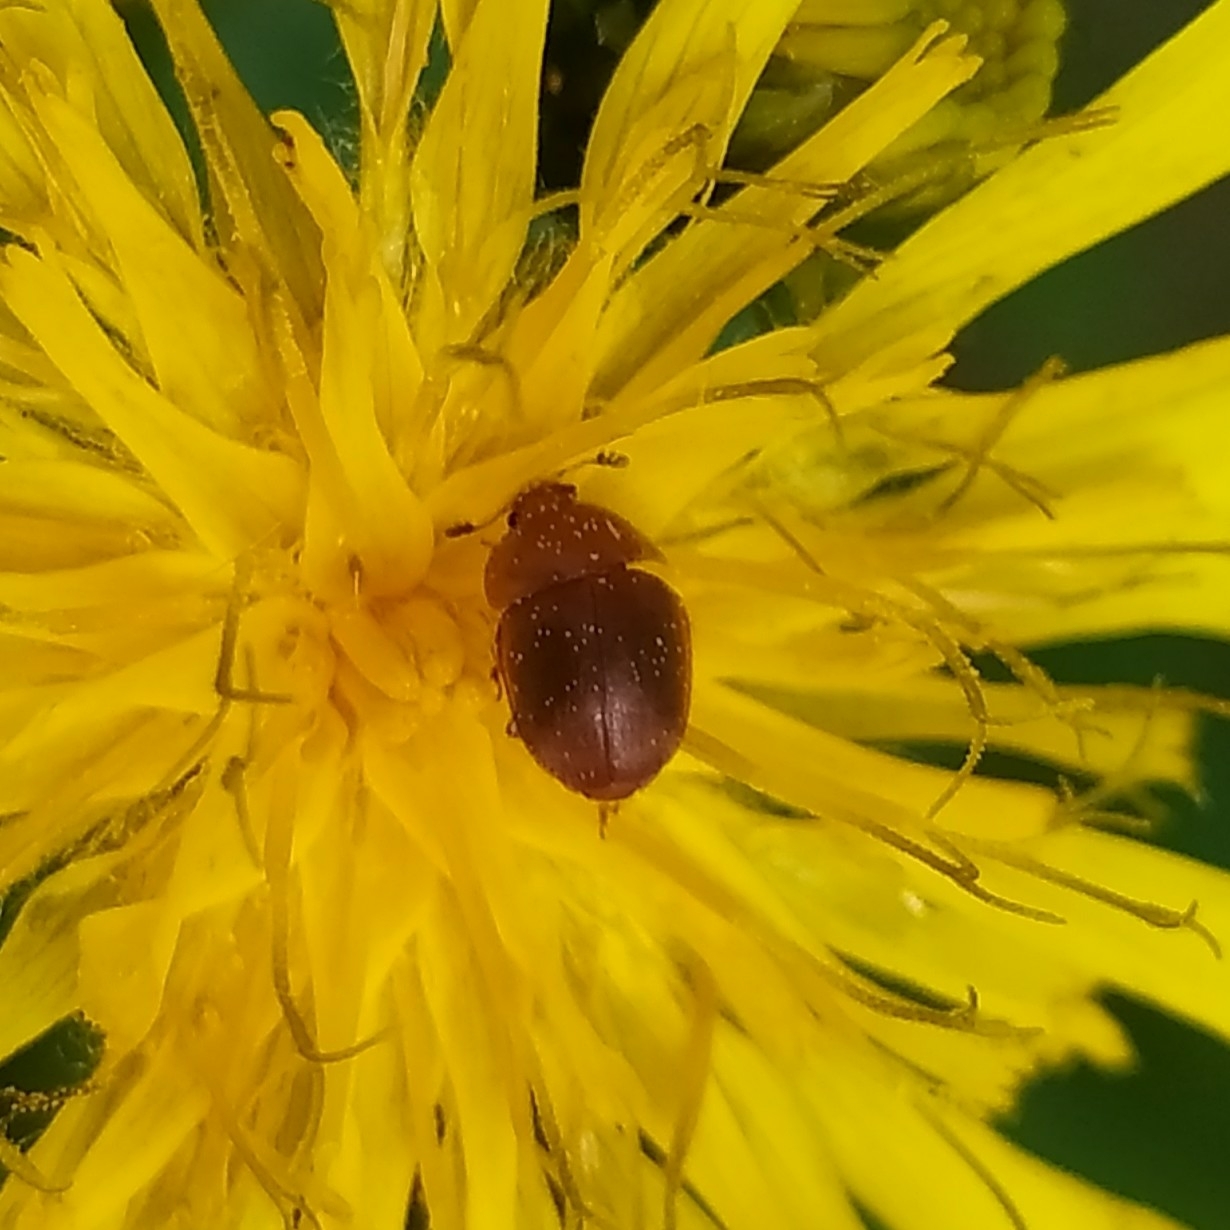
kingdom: Animalia
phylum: Arthropoda
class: Insecta
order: Coleoptera
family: Nitidulidae
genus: Cychramus
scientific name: Cychramus luteus
